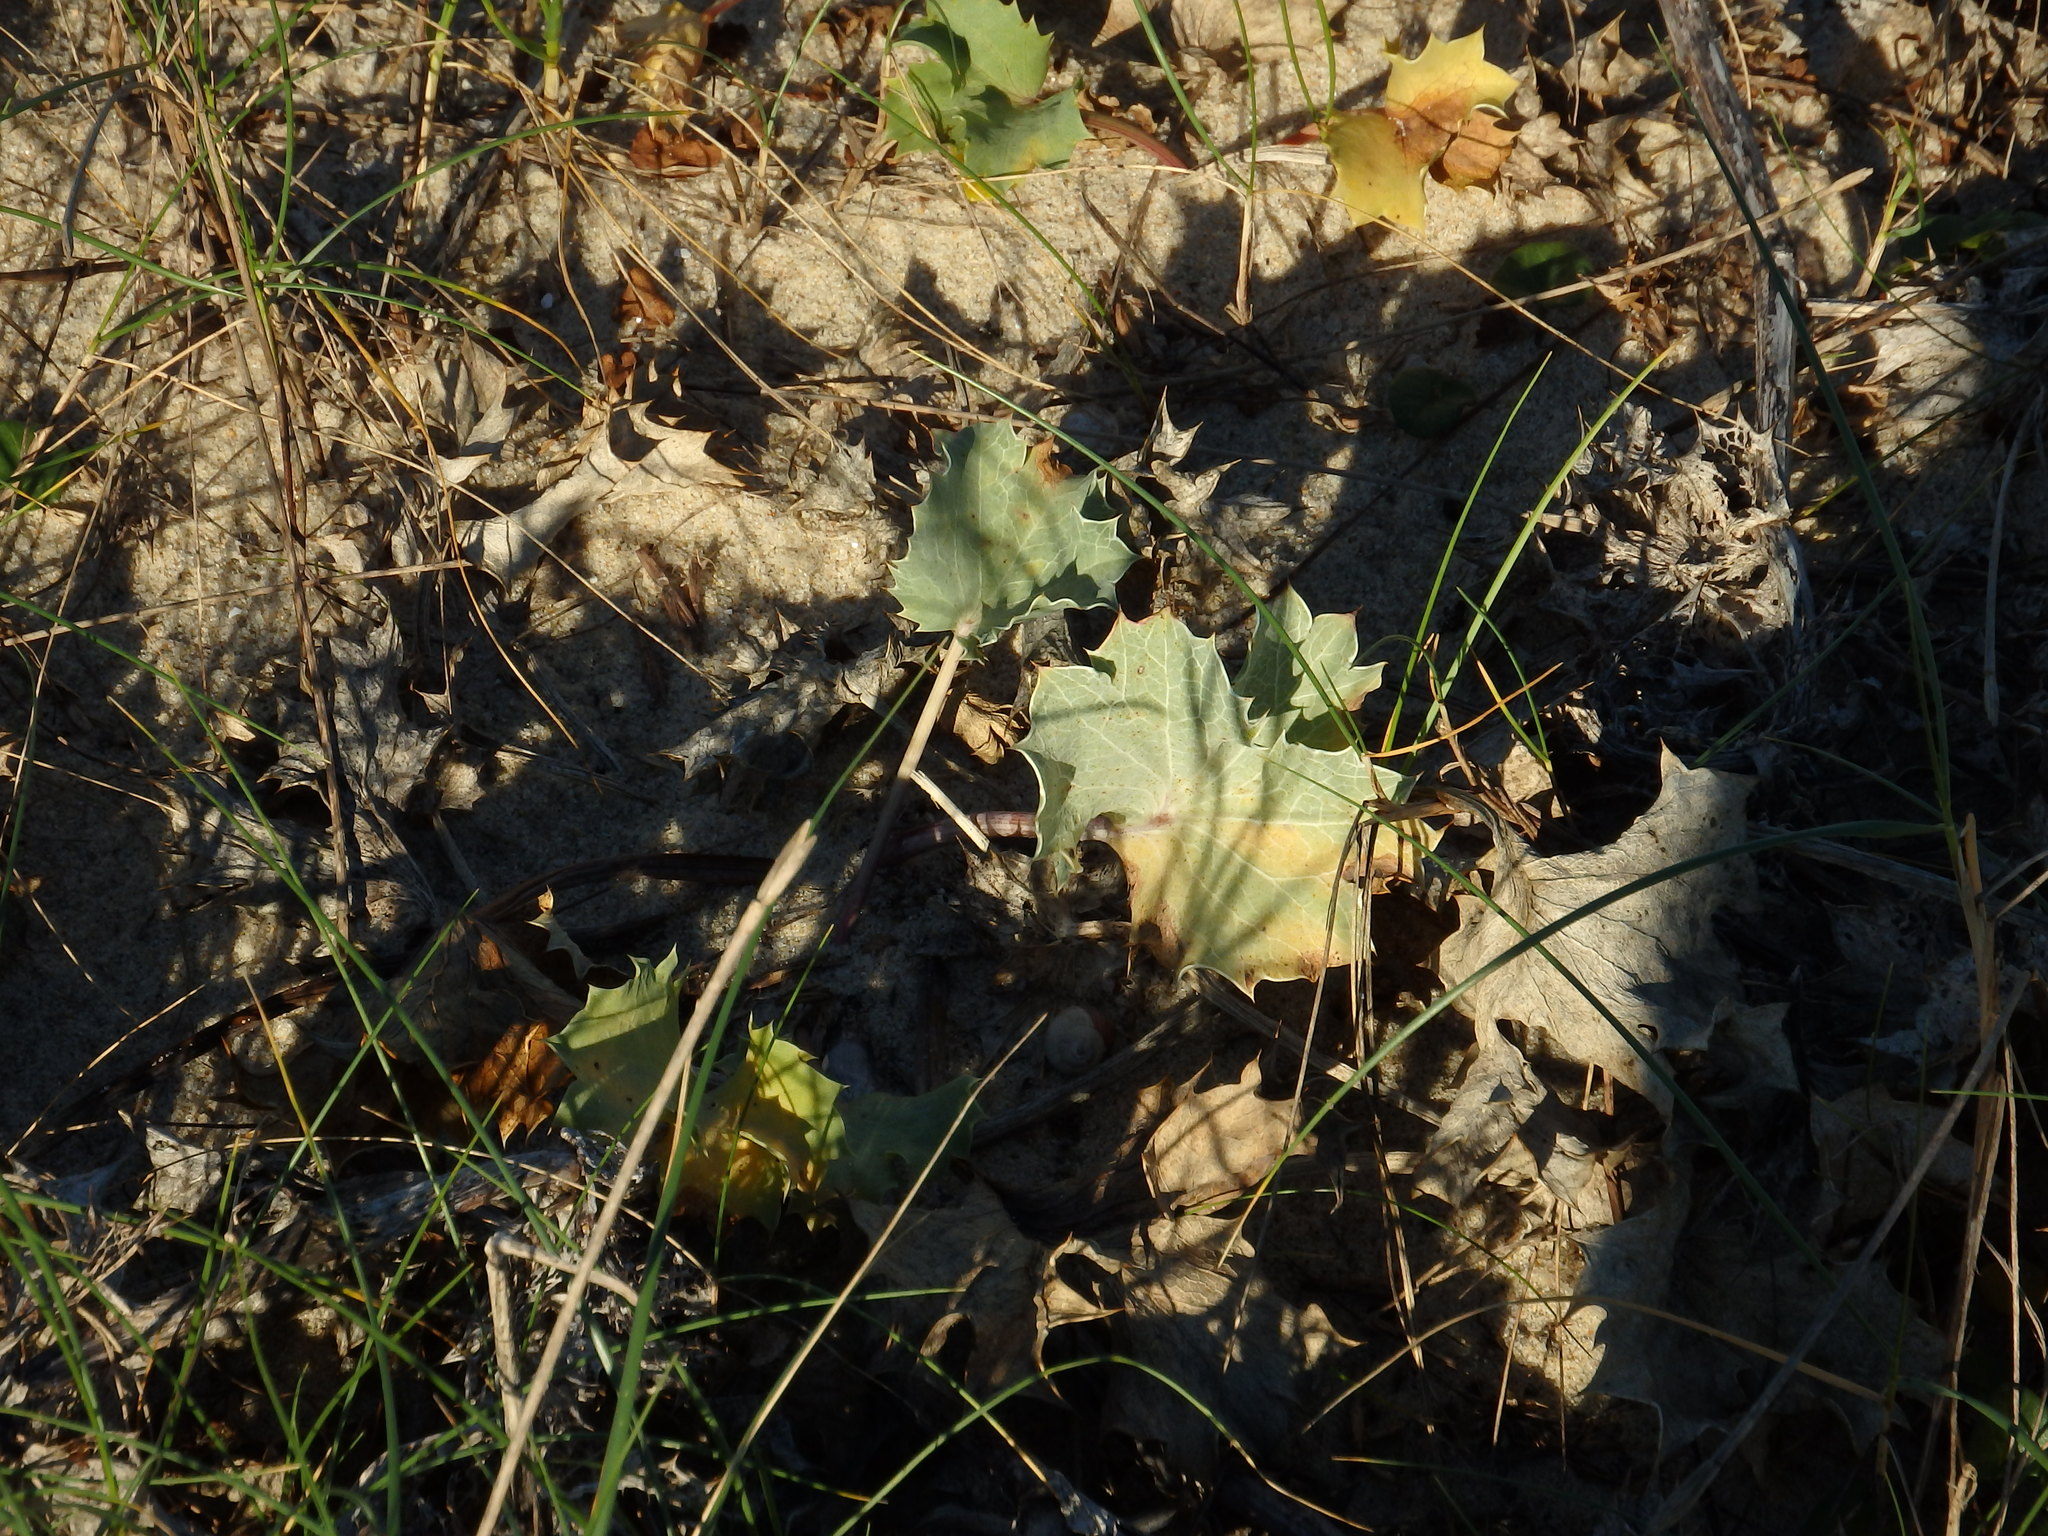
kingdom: Plantae
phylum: Tracheophyta
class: Magnoliopsida
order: Apiales
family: Apiaceae
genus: Eryngium
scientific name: Eryngium maritimum
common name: Sea-holly
